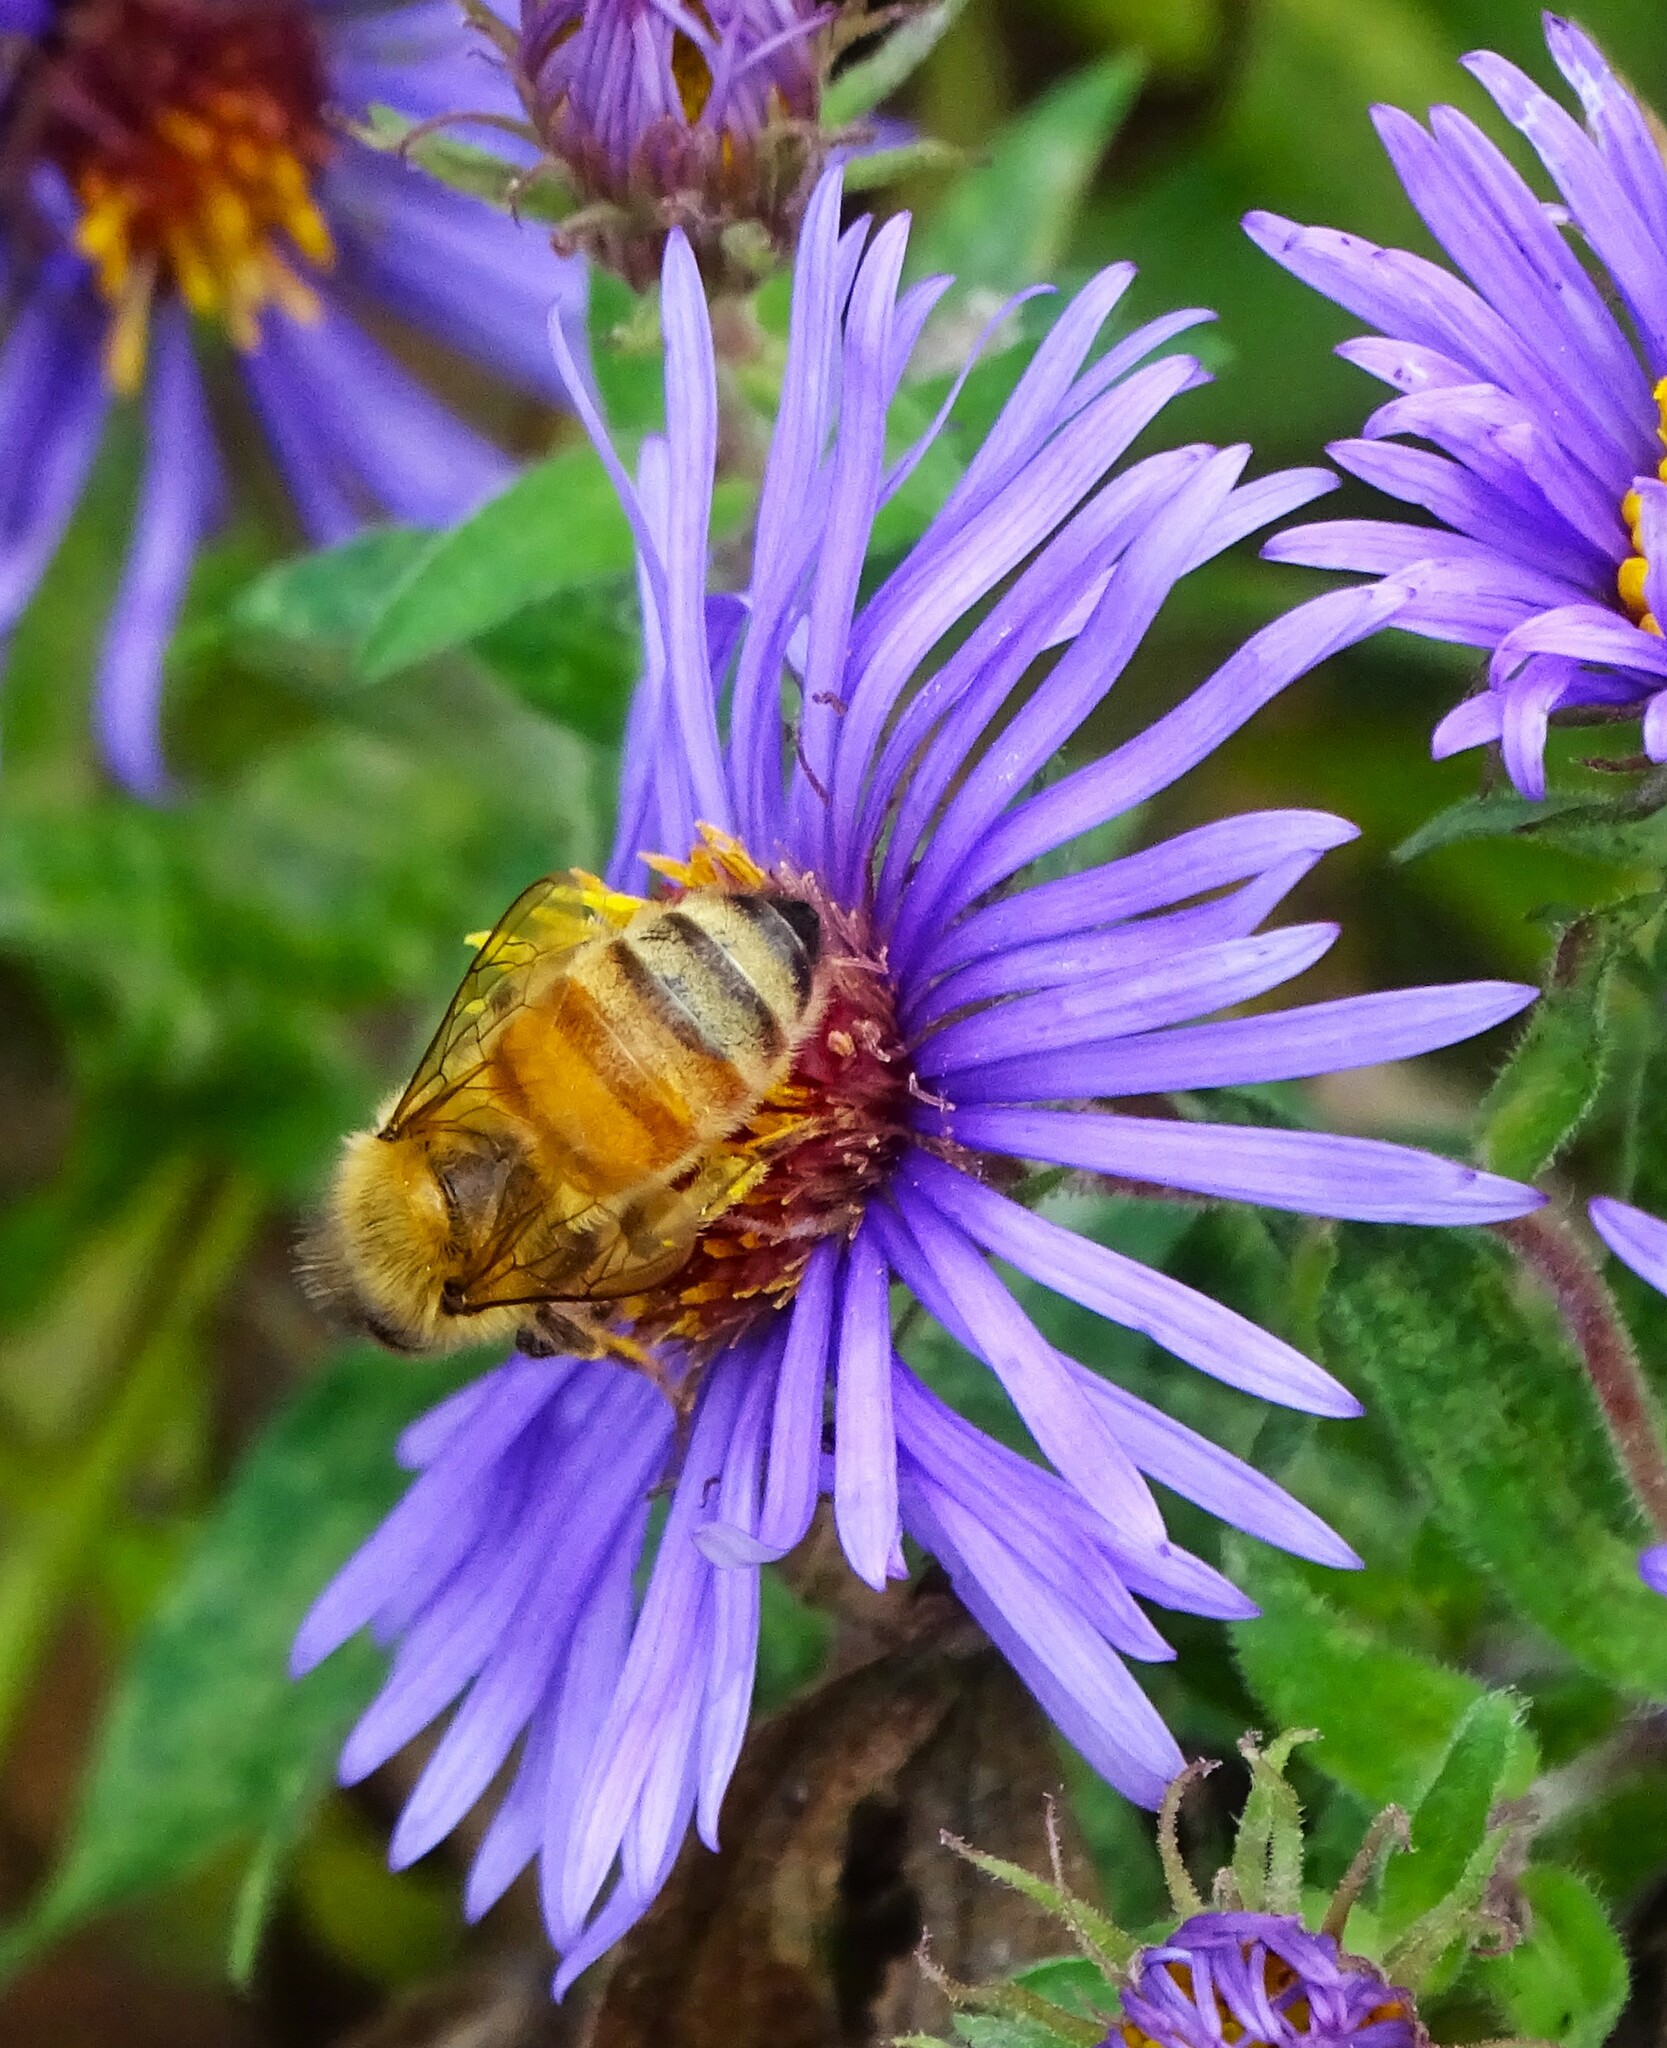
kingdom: Animalia
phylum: Arthropoda
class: Insecta
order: Hymenoptera
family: Apidae
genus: Apis
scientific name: Apis mellifera
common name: Honey bee
